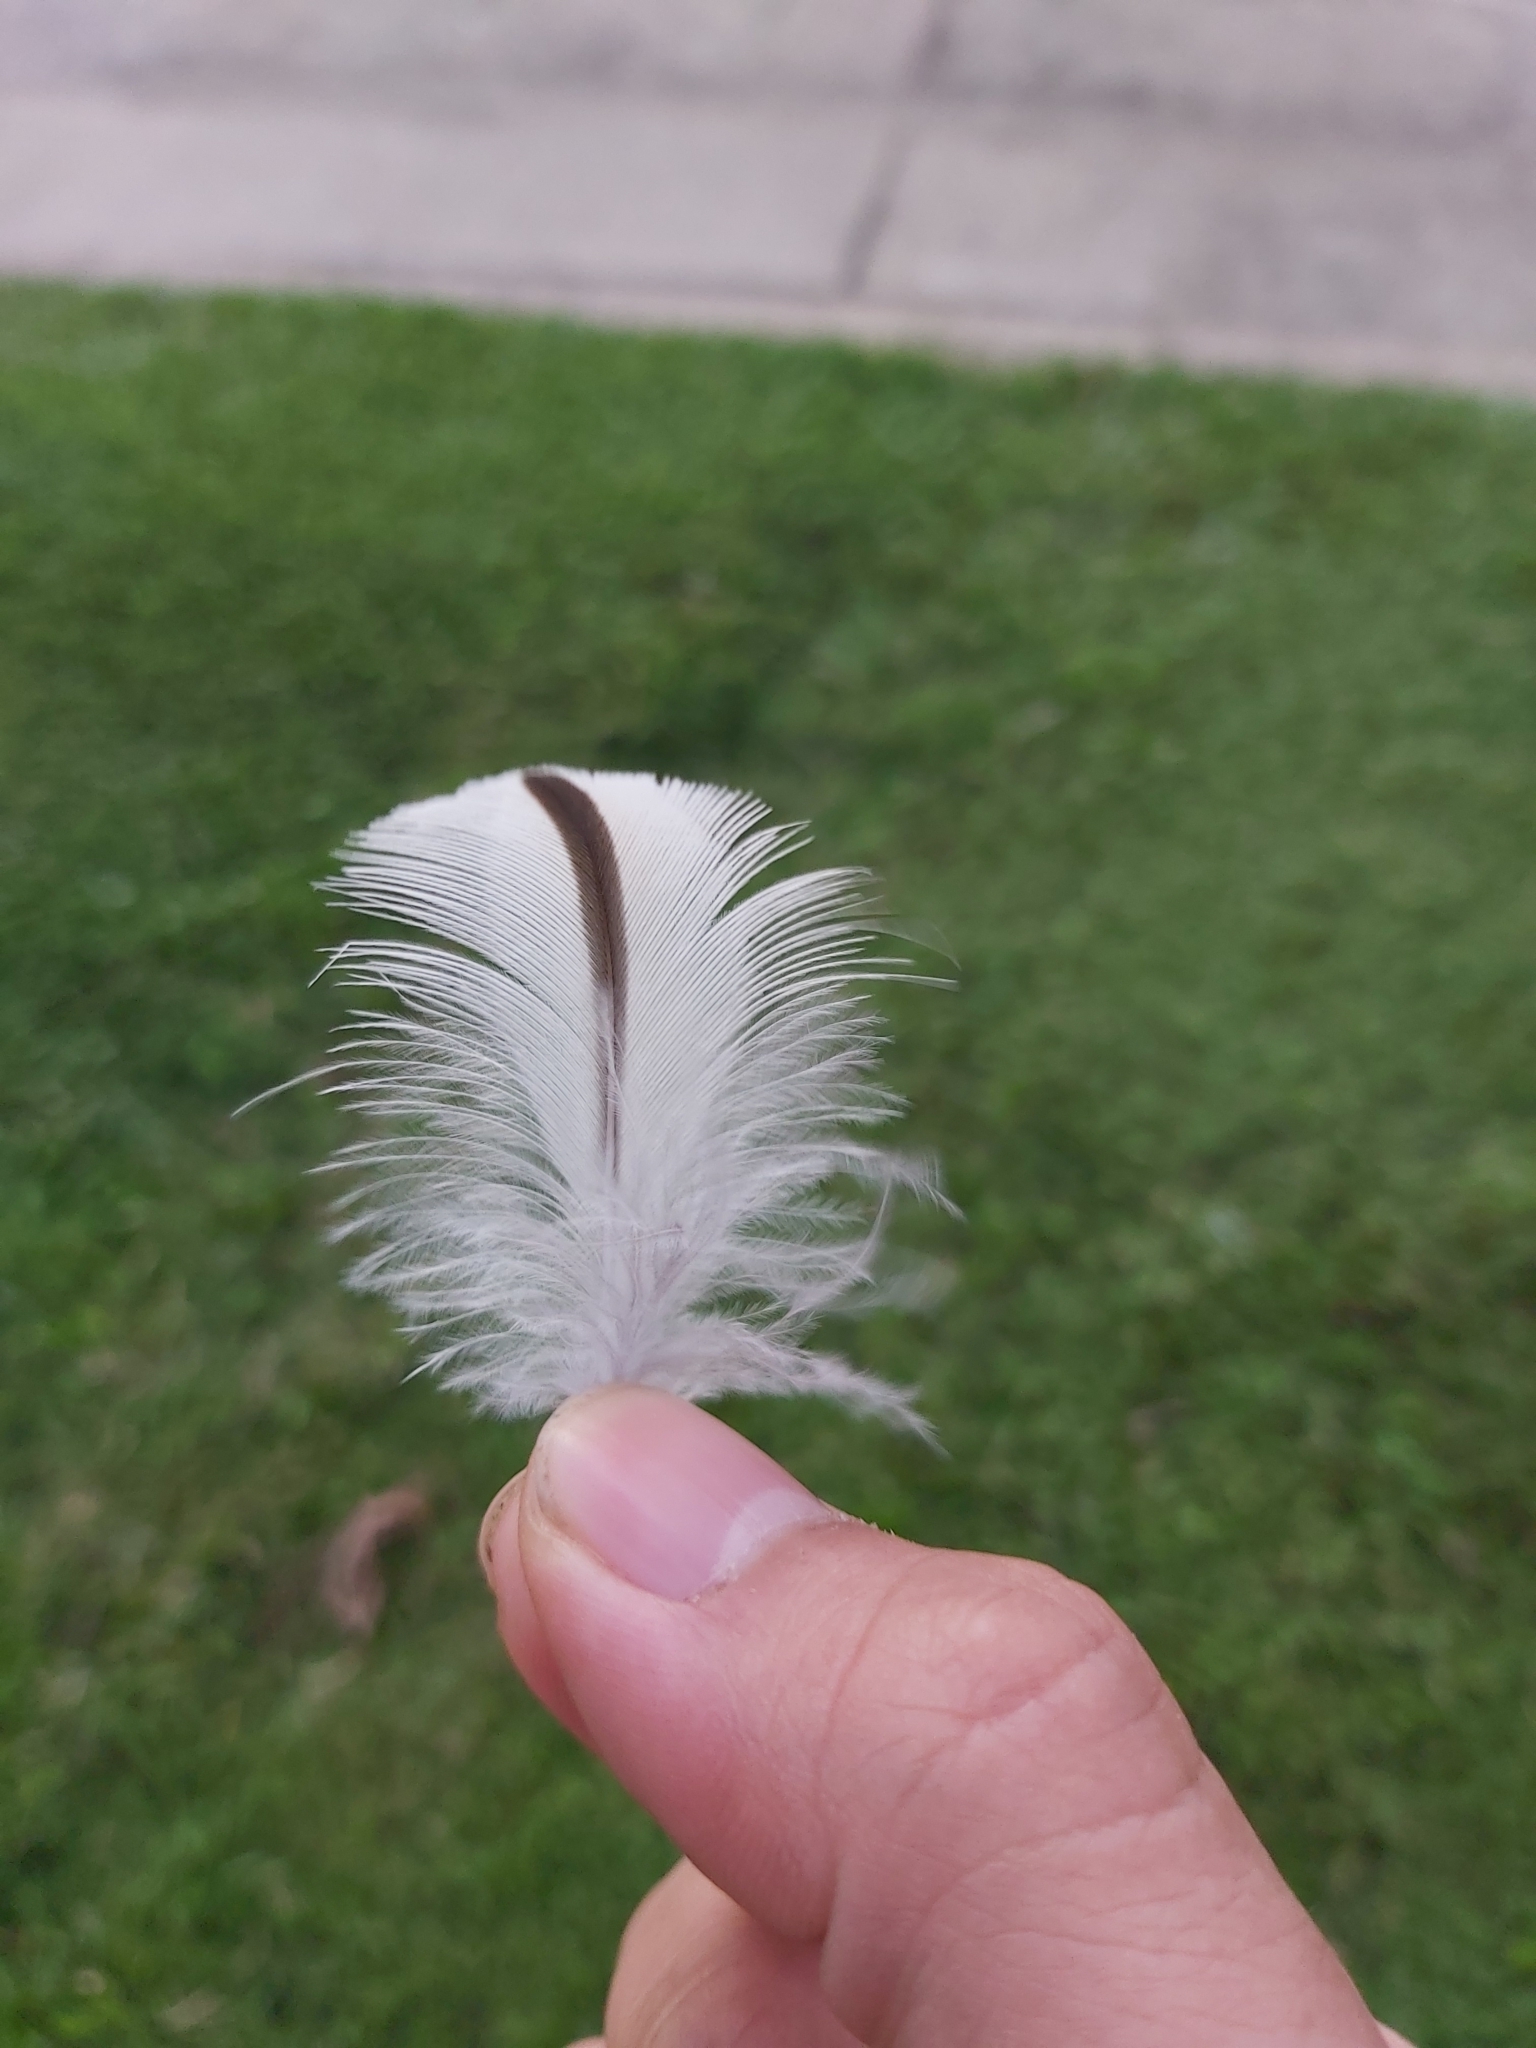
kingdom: Animalia
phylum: Chordata
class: Aves
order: Charadriiformes
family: Burhinidae
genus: Burhinus
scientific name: Burhinus grallarius
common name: Bush stone-curlew
